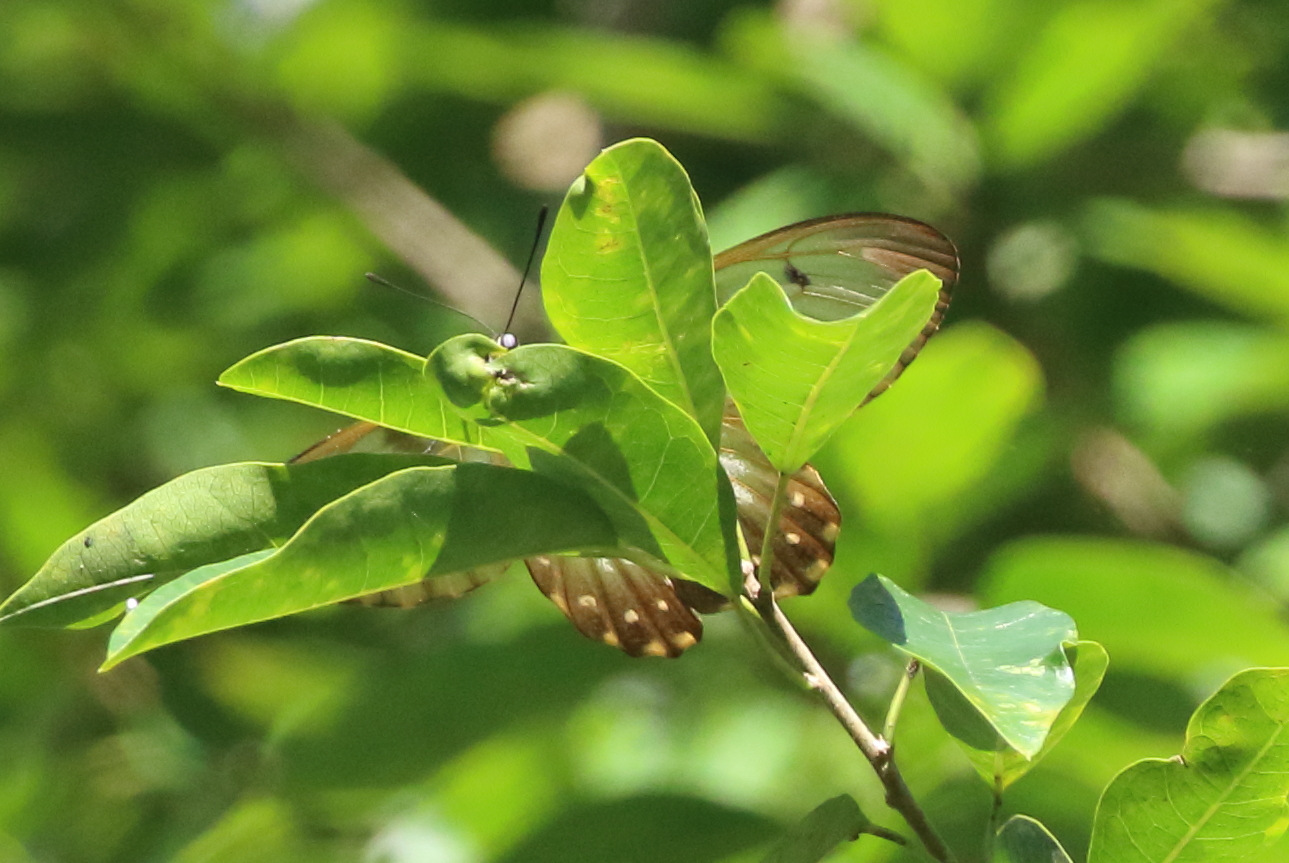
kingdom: Animalia
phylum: Arthropoda
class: Insecta
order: Lepidoptera
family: Papilionidae
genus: Cressida
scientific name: Cressida cressida
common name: Big greasy
